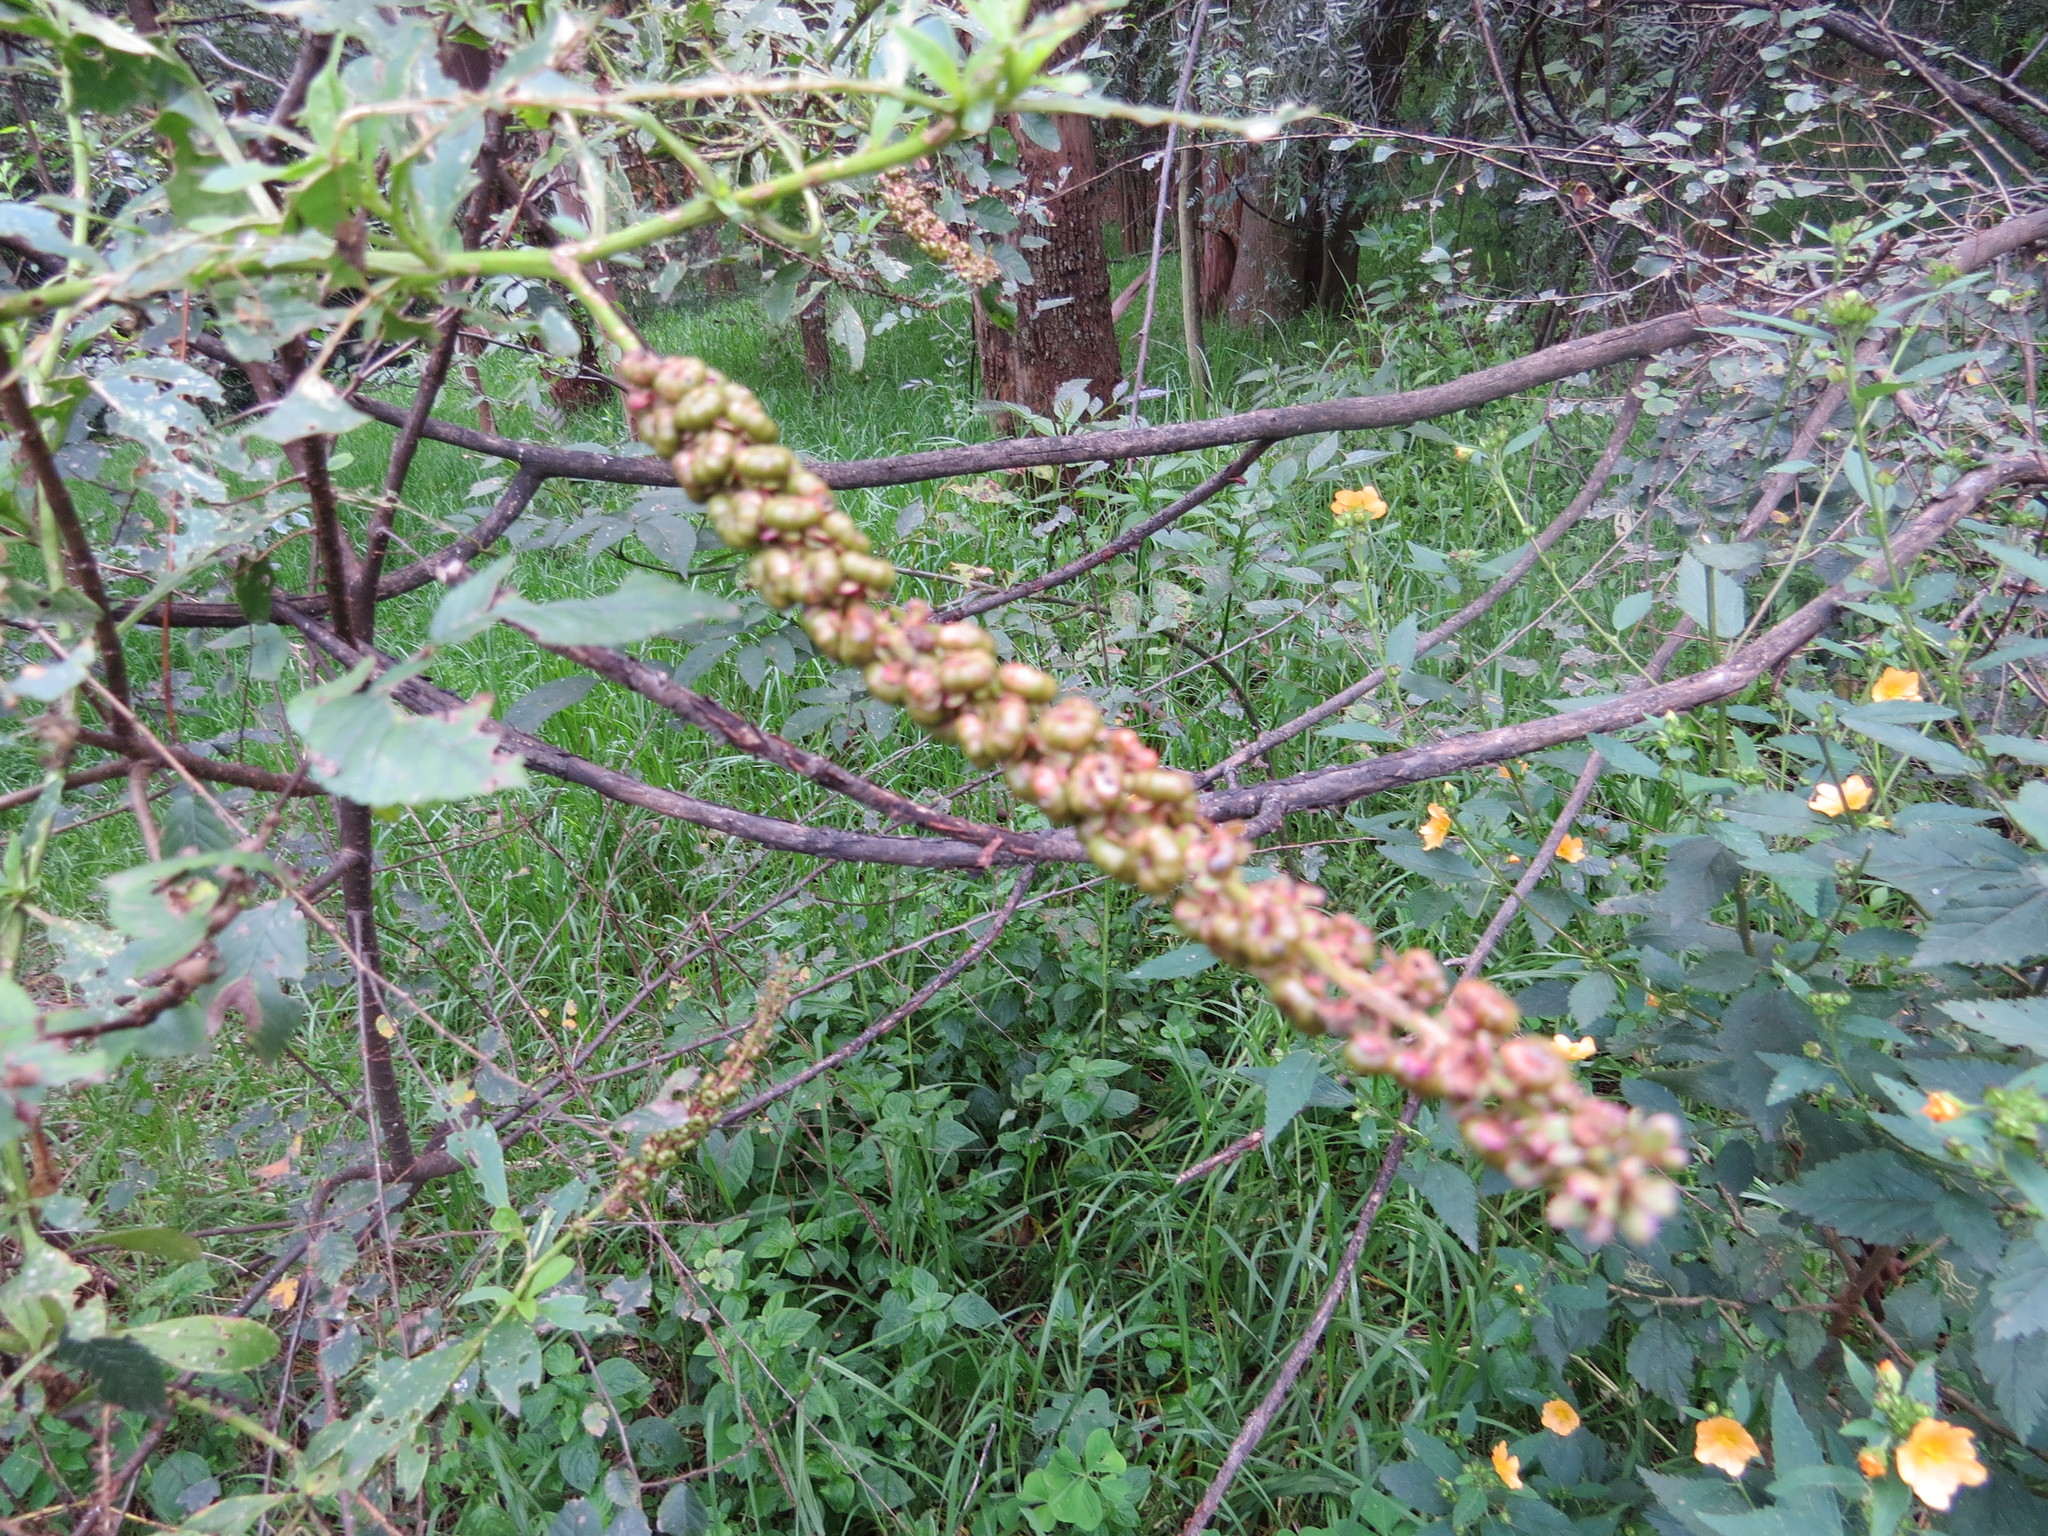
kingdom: Plantae
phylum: Tracheophyta
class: Magnoliopsida
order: Caryophyllales
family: Phytolaccaceae
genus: Phytolacca
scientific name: Phytolacca icosandra
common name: Button pokeweed
